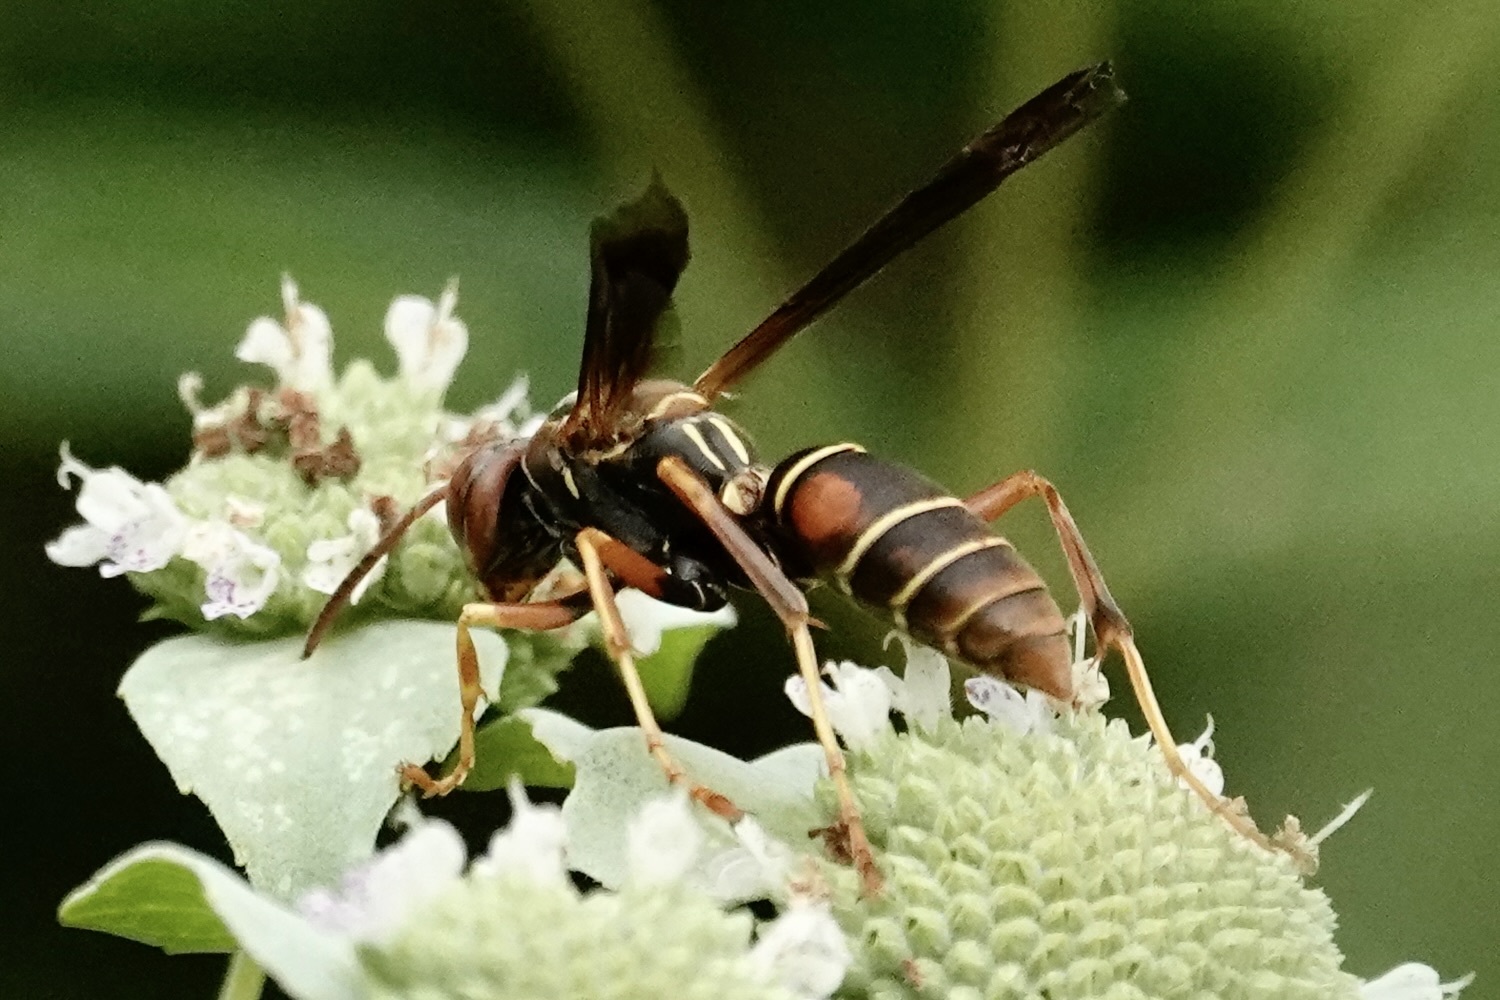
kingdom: Animalia
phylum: Arthropoda
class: Insecta
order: Hymenoptera
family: Eumenidae
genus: Polistes
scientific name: Polistes fuscatus
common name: Dark paper wasp
